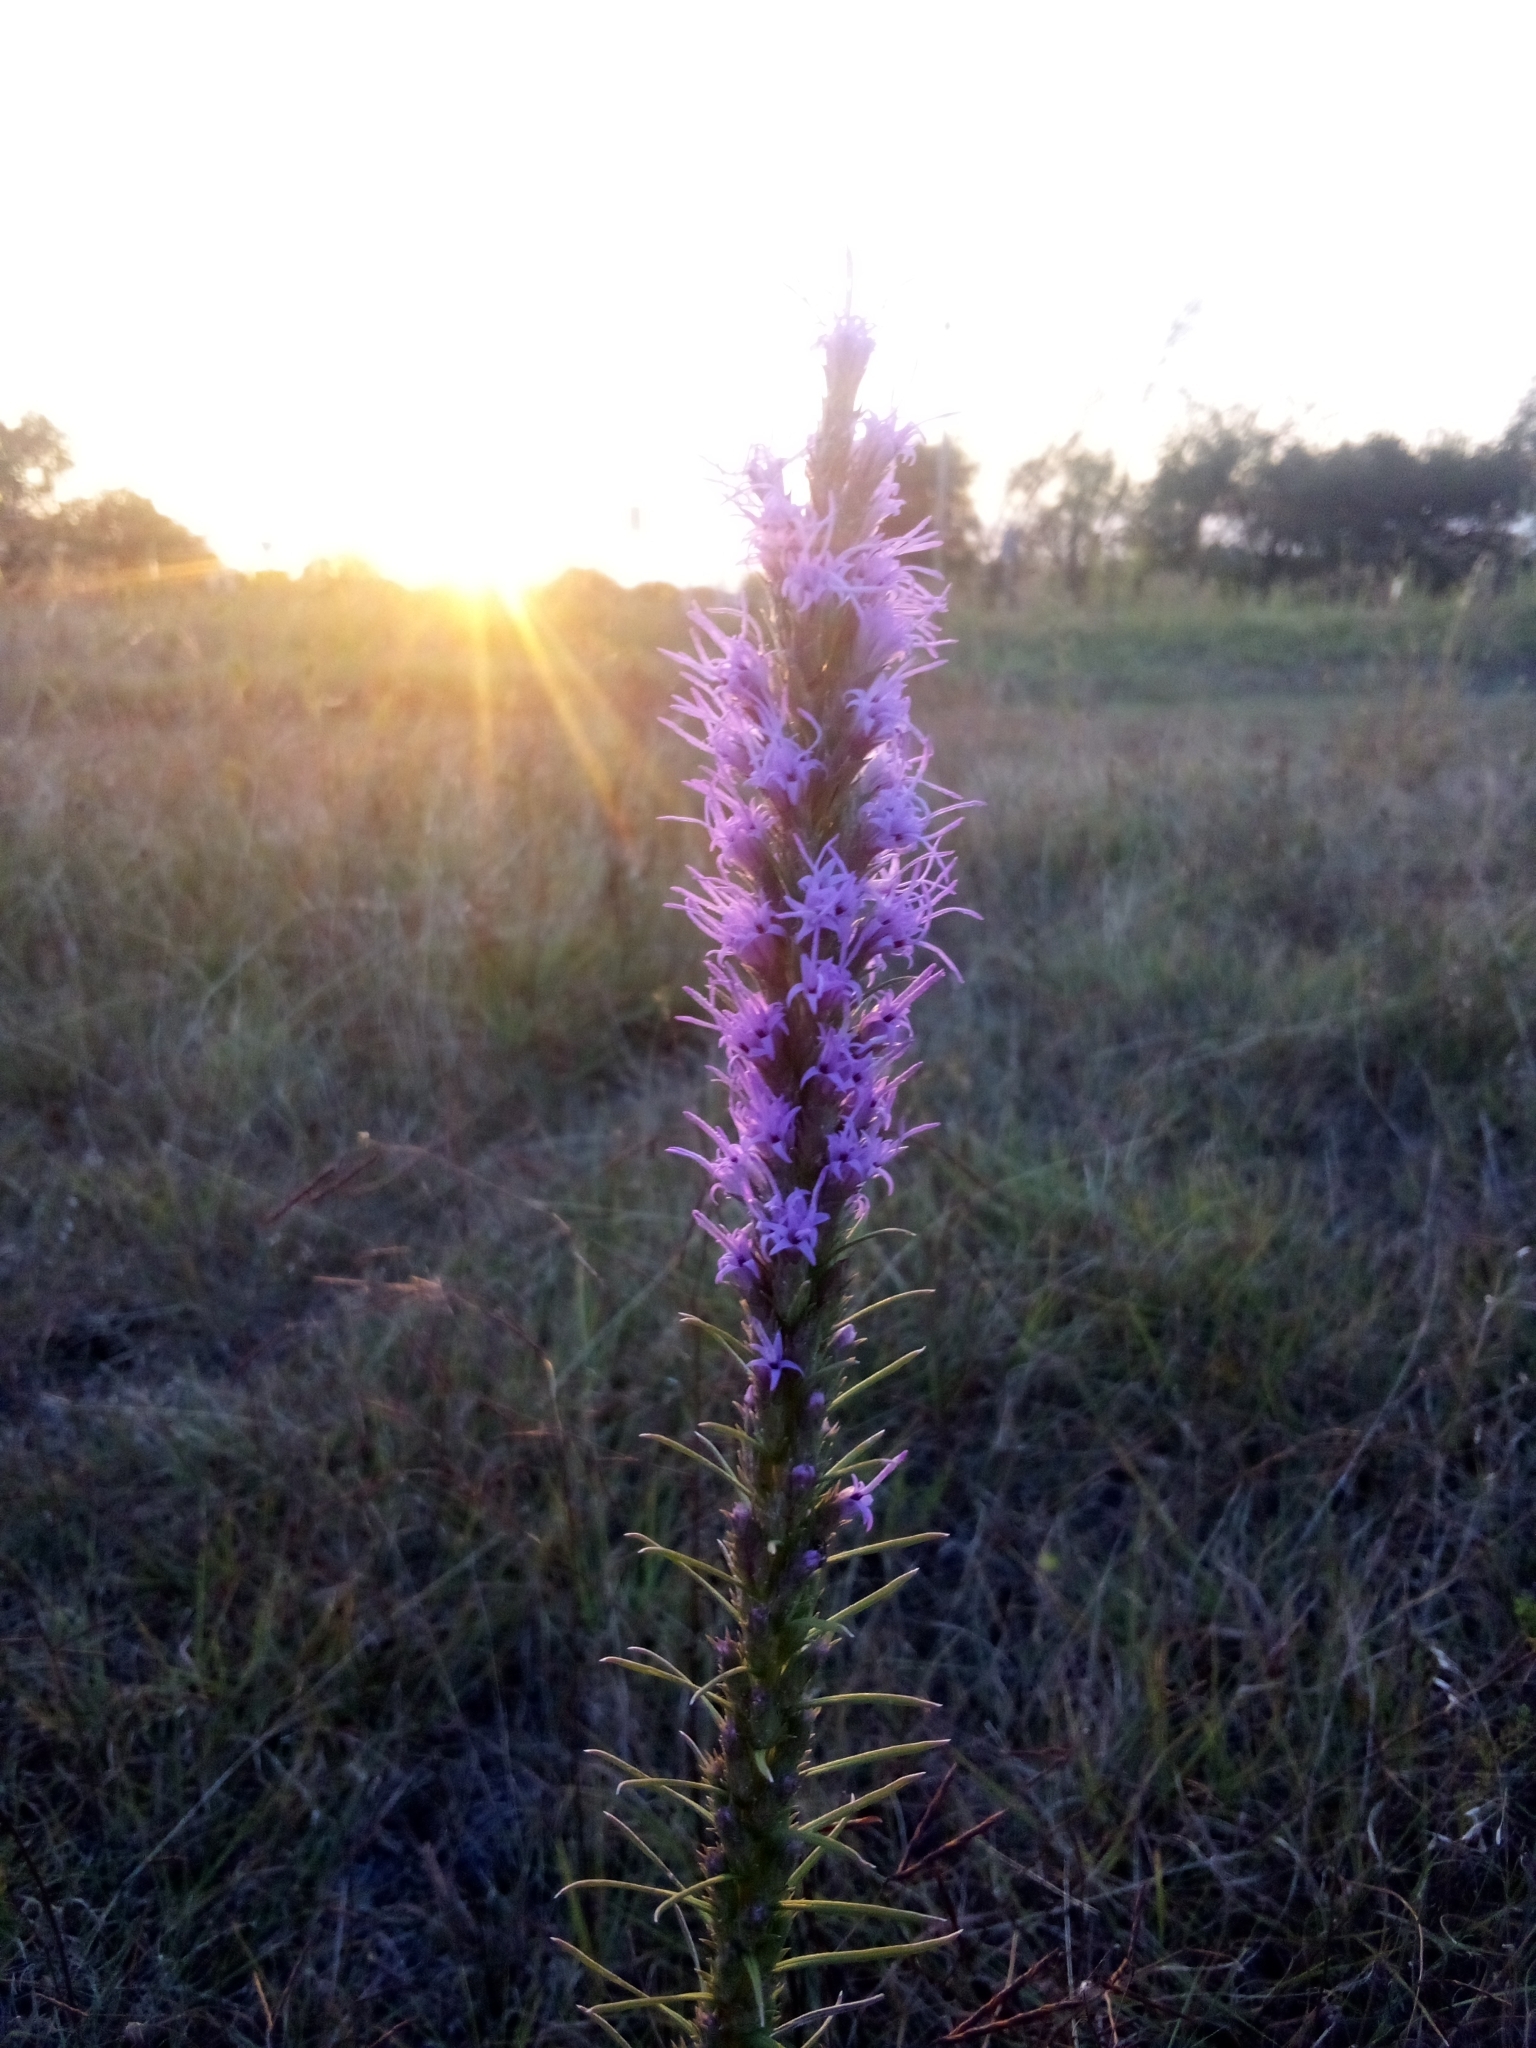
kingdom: Plantae
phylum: Tracheophyta
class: Magnoliopsida
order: Asterales
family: Asteraceae
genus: Liatris
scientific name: Liatris punctata
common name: Dotted gayfeather
